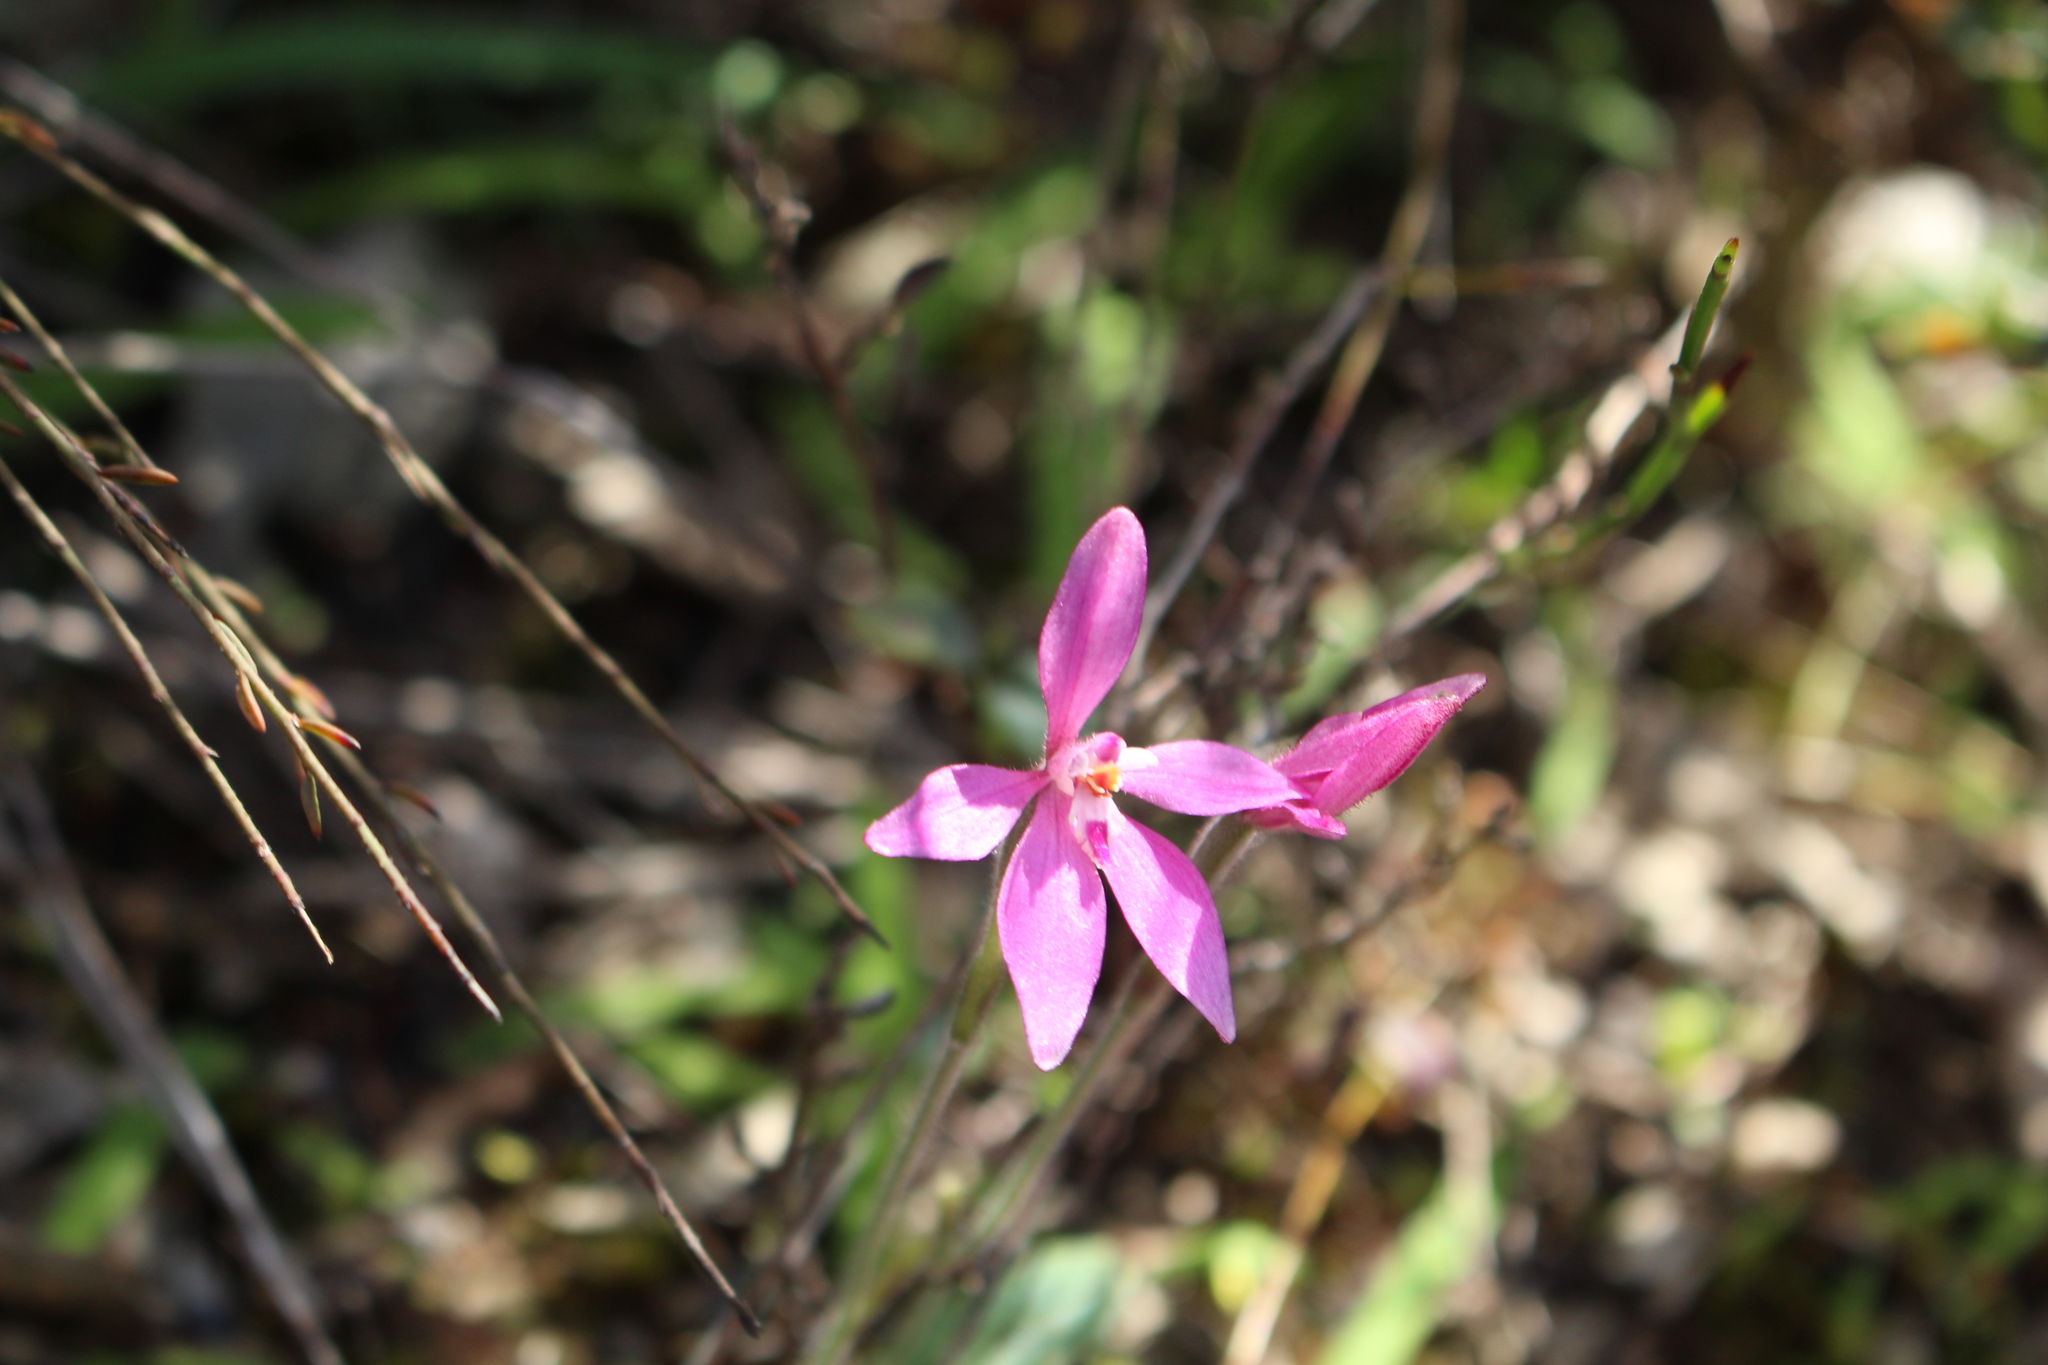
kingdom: Plantae
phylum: Tracheophyta
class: Liliopsida
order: Asparagales
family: Orchidaceae
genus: Caladenia
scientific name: Caladenia reptans
